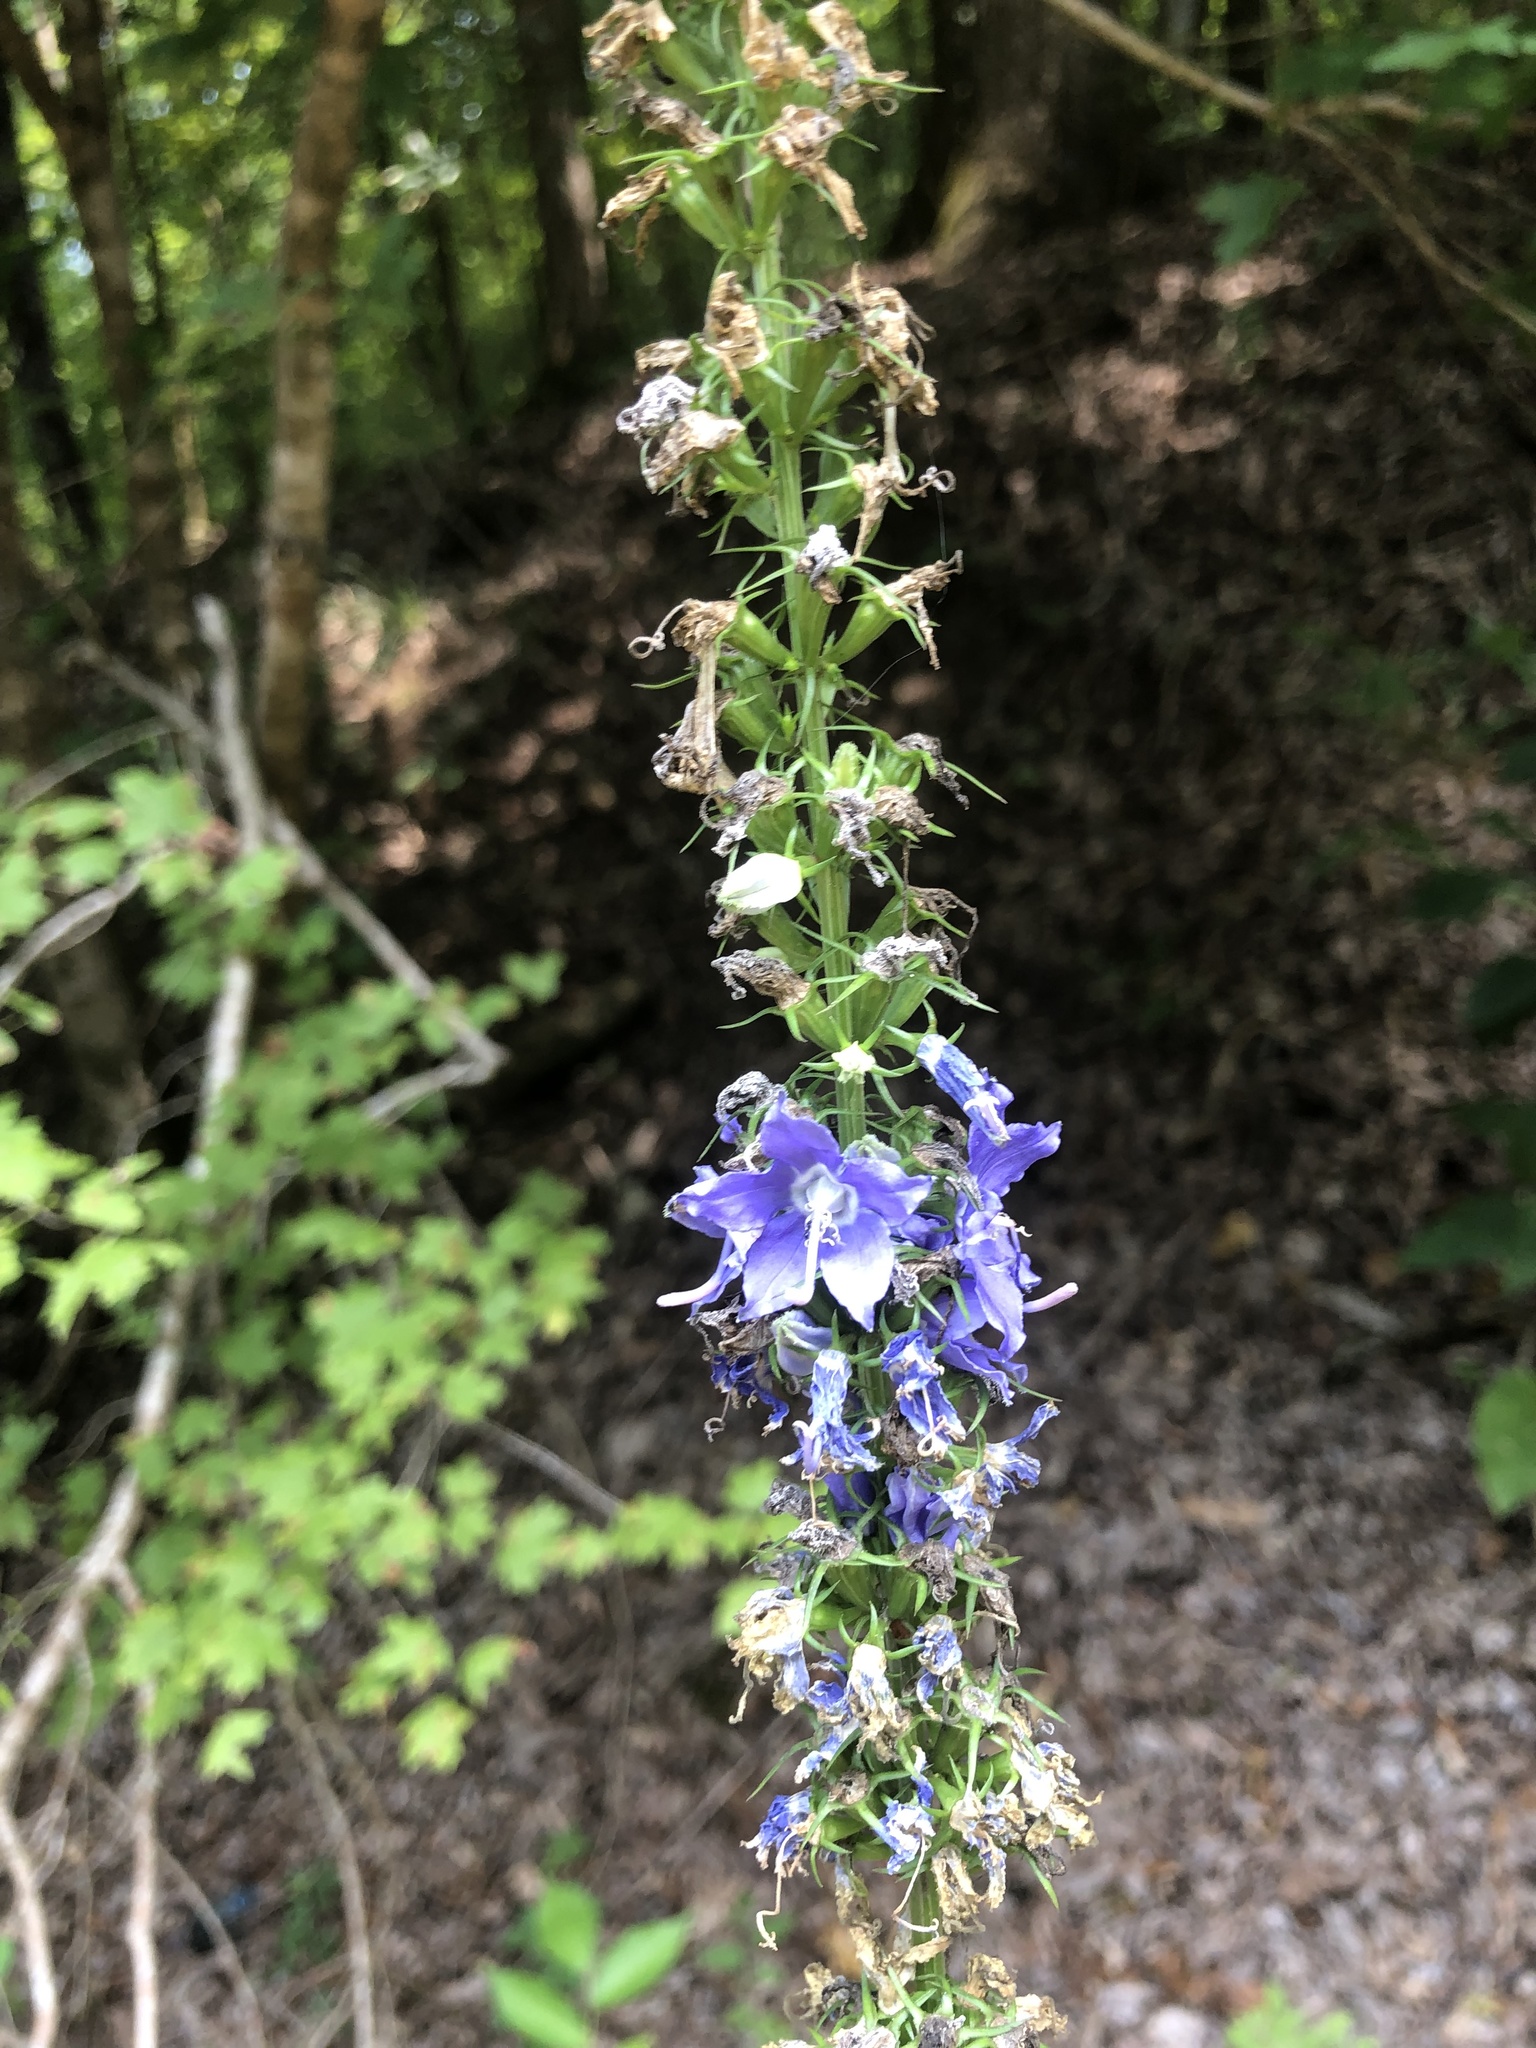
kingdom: Plantae
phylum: Tracheophyta
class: Magnoliopsida
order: Asterales
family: Campanulaceae
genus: Campanulastrum
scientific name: Campanulastrum americanum
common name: American bellflower
